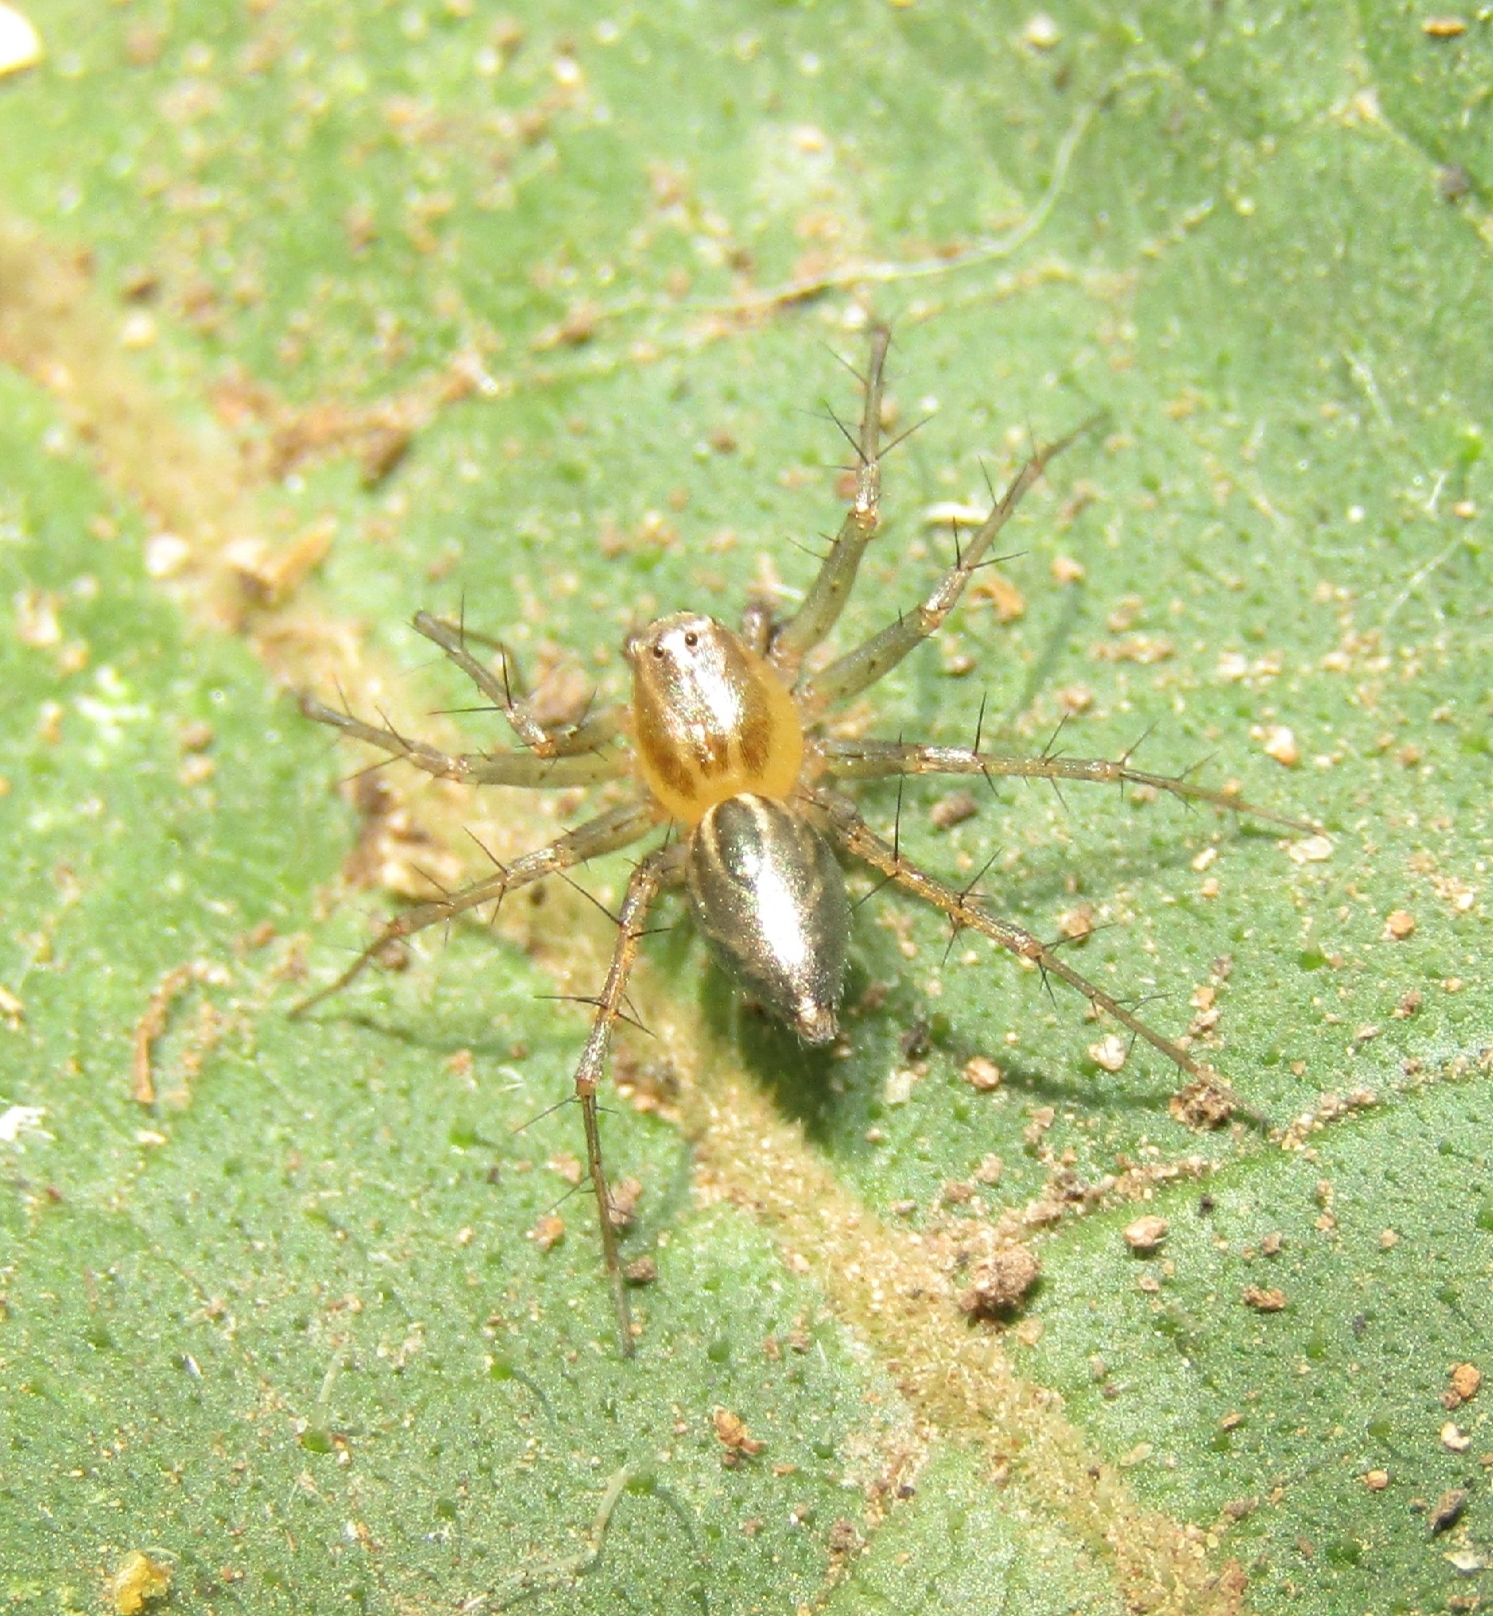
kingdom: Animalia
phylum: Arthropoda
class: Arachnida
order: Araneae
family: Oxyopidae
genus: Oxyopes
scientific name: Oxyopes salticus
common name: Lynx spiders
